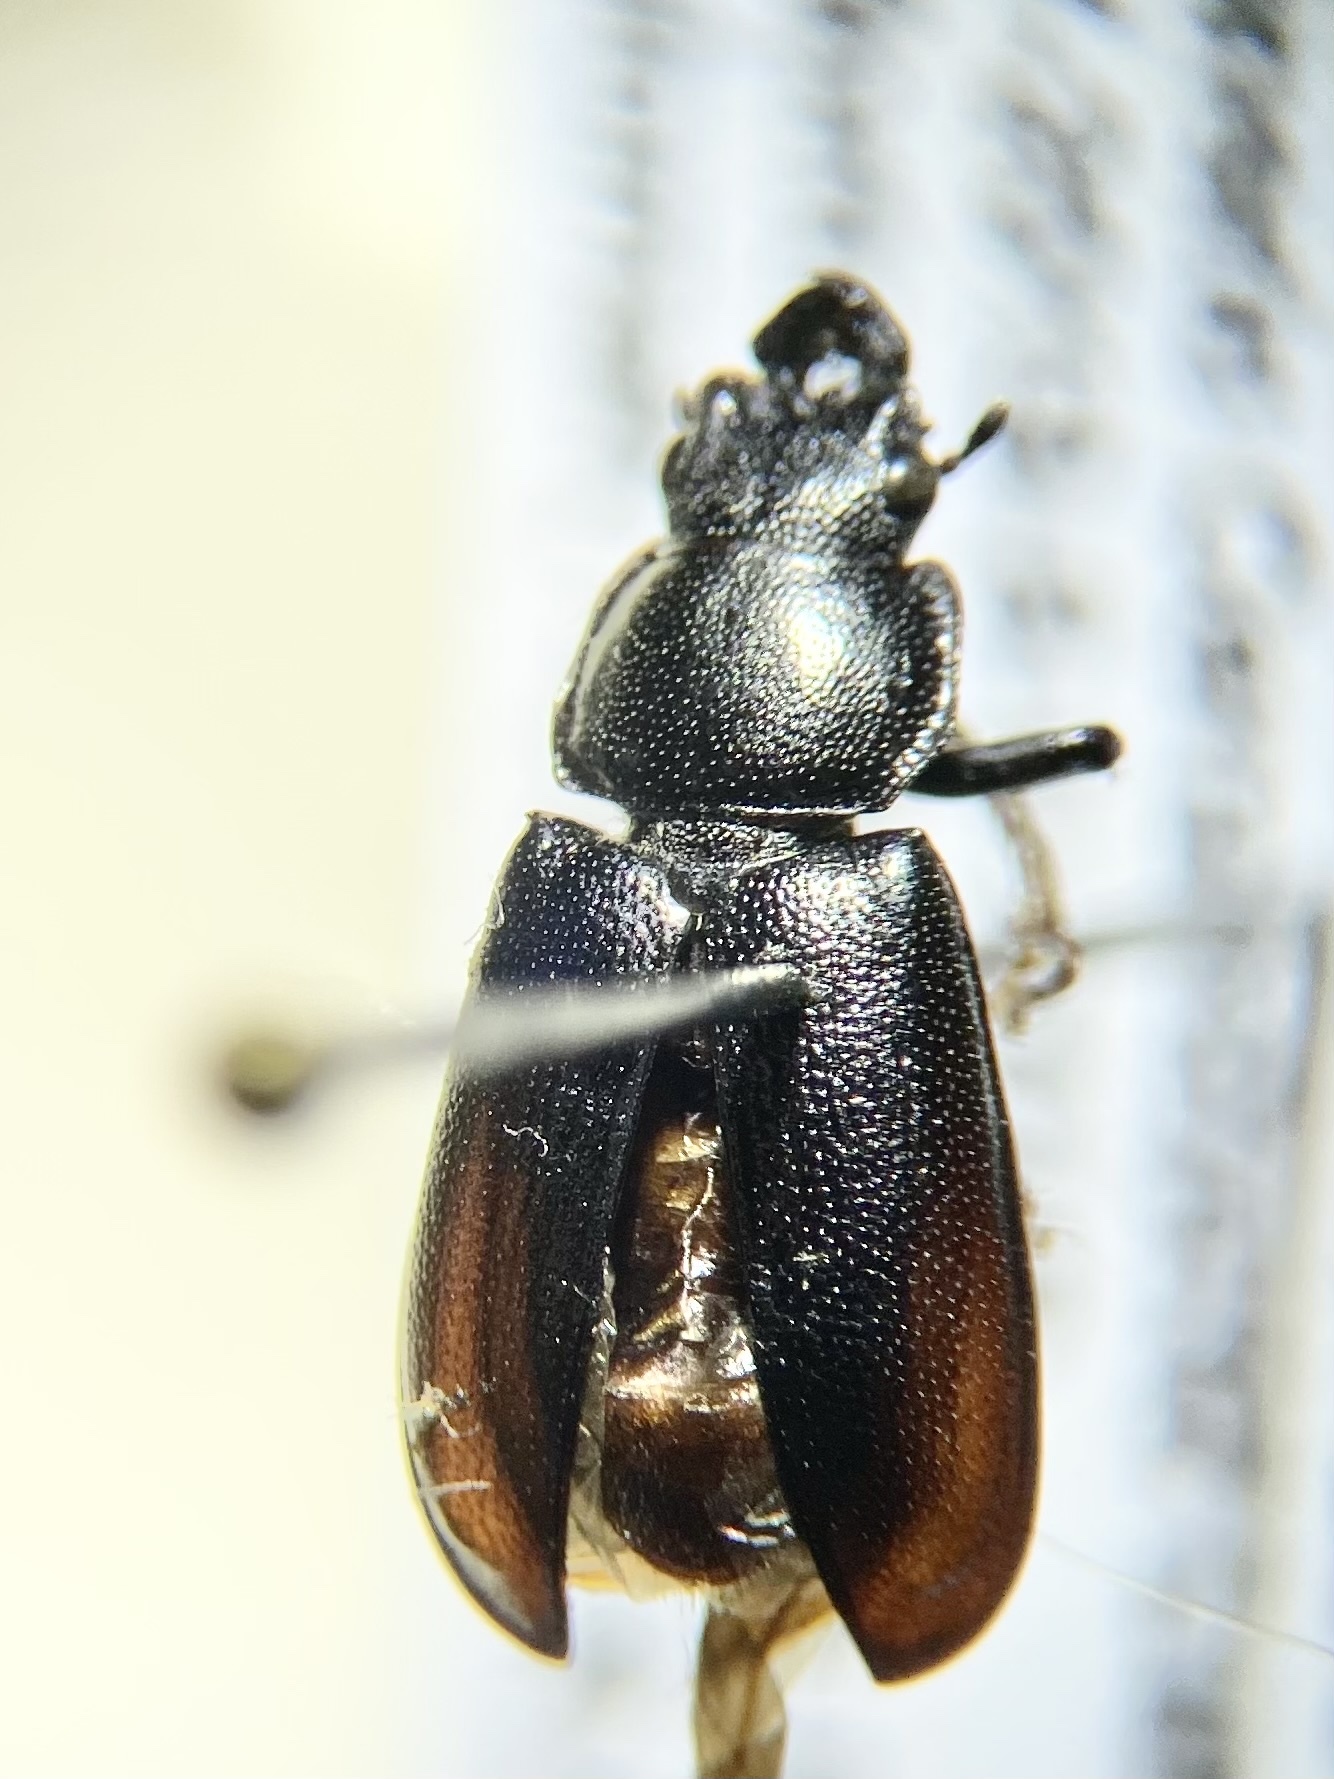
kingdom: Animalia
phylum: Arthropoda
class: Insecta
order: Coleoptera
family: Lucanidae
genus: Platycerus
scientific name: Platycerus quercus
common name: Oak stag beetle
